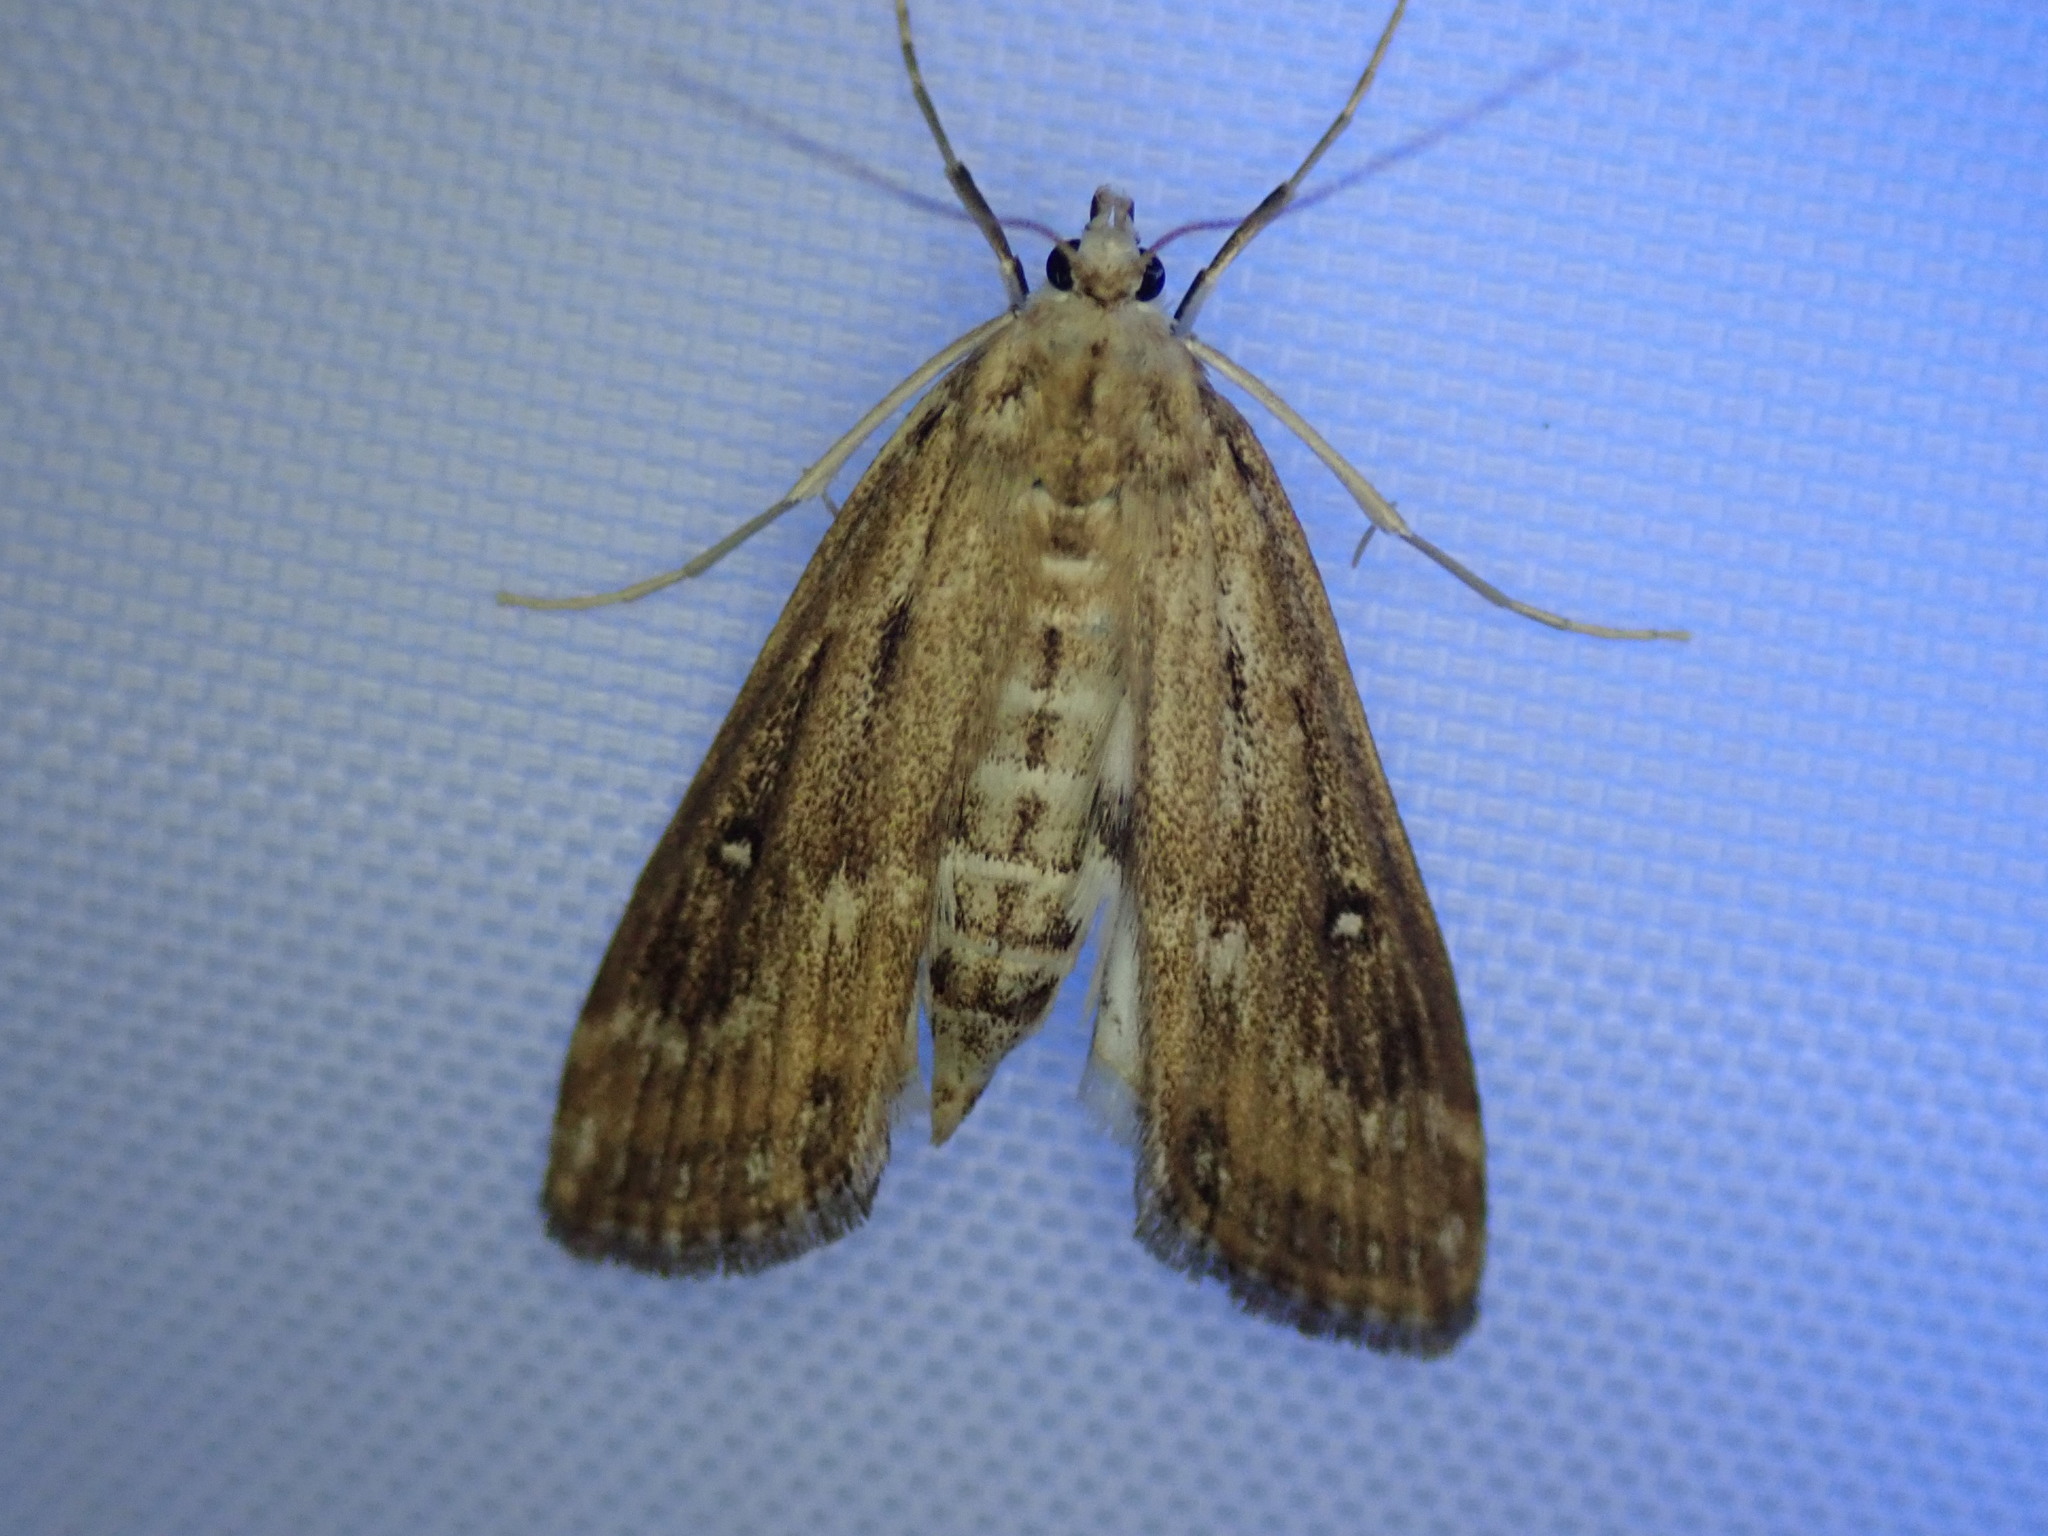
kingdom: Animalia
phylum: Arthropoda
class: Insecta
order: Lepidoptera
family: Crambidae
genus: Parapoynx
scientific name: Parapoynx stratiotata
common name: Ringed china-mark
